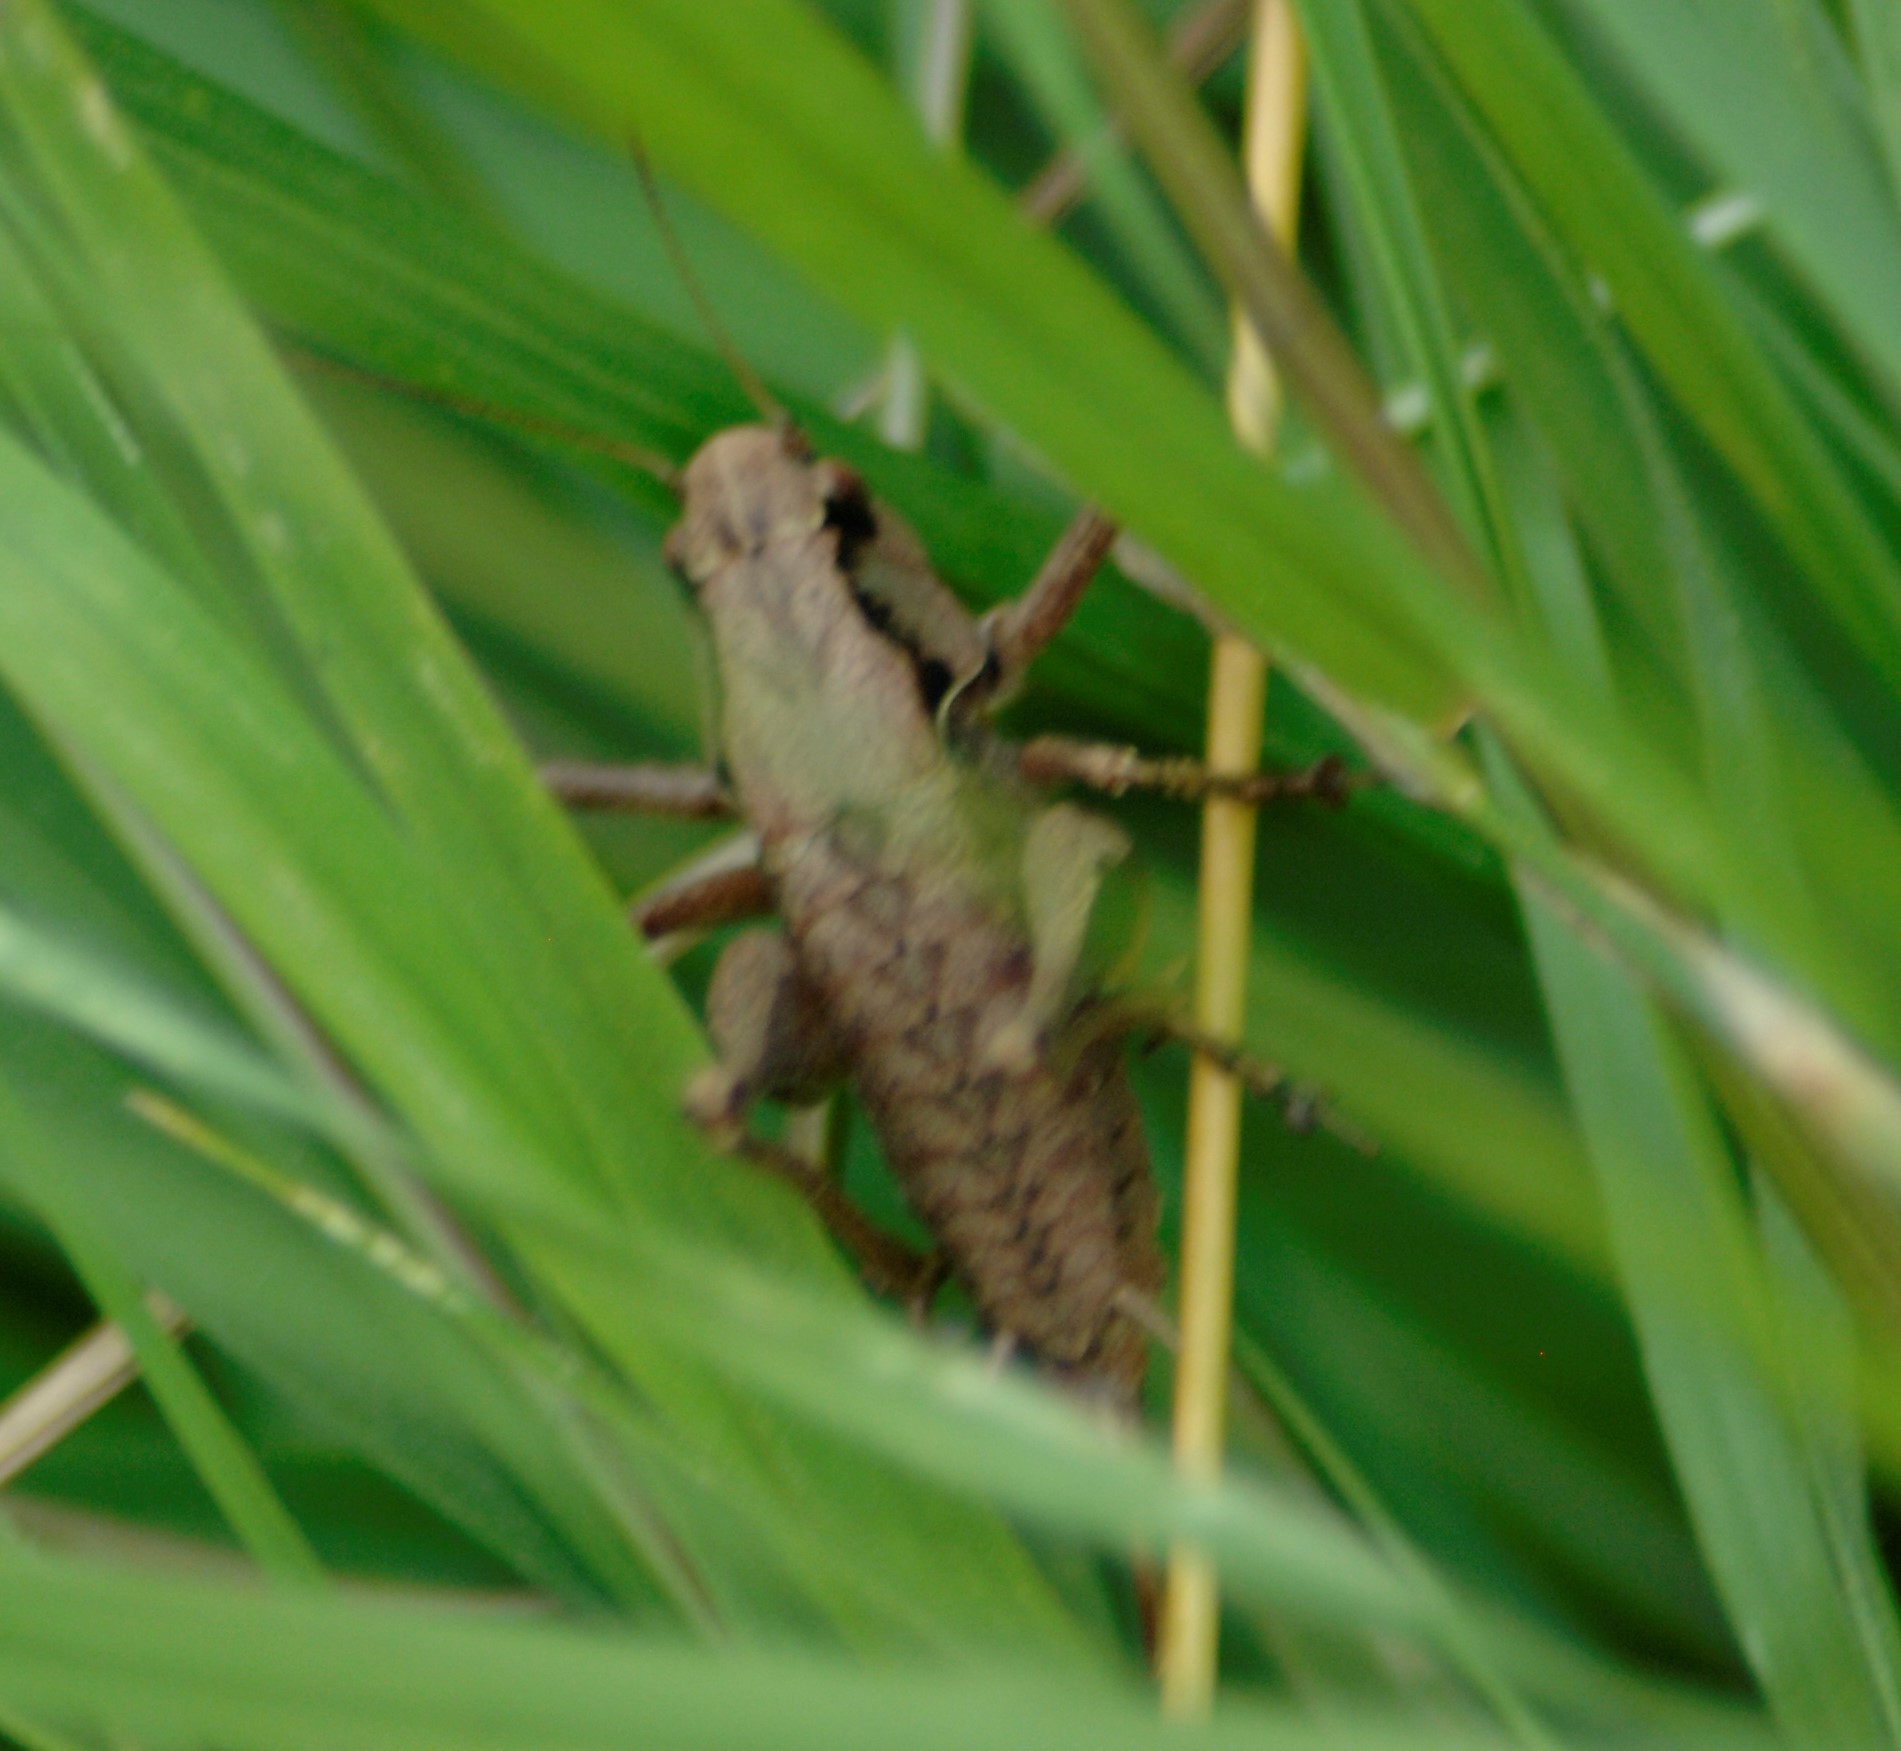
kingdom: Animalia
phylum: Arthropoda
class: Insecta
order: Orthoptera
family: Tettigoniidae
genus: Pholidoptera
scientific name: Pholidoptera griseoaptera
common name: Dark bush-cricket
